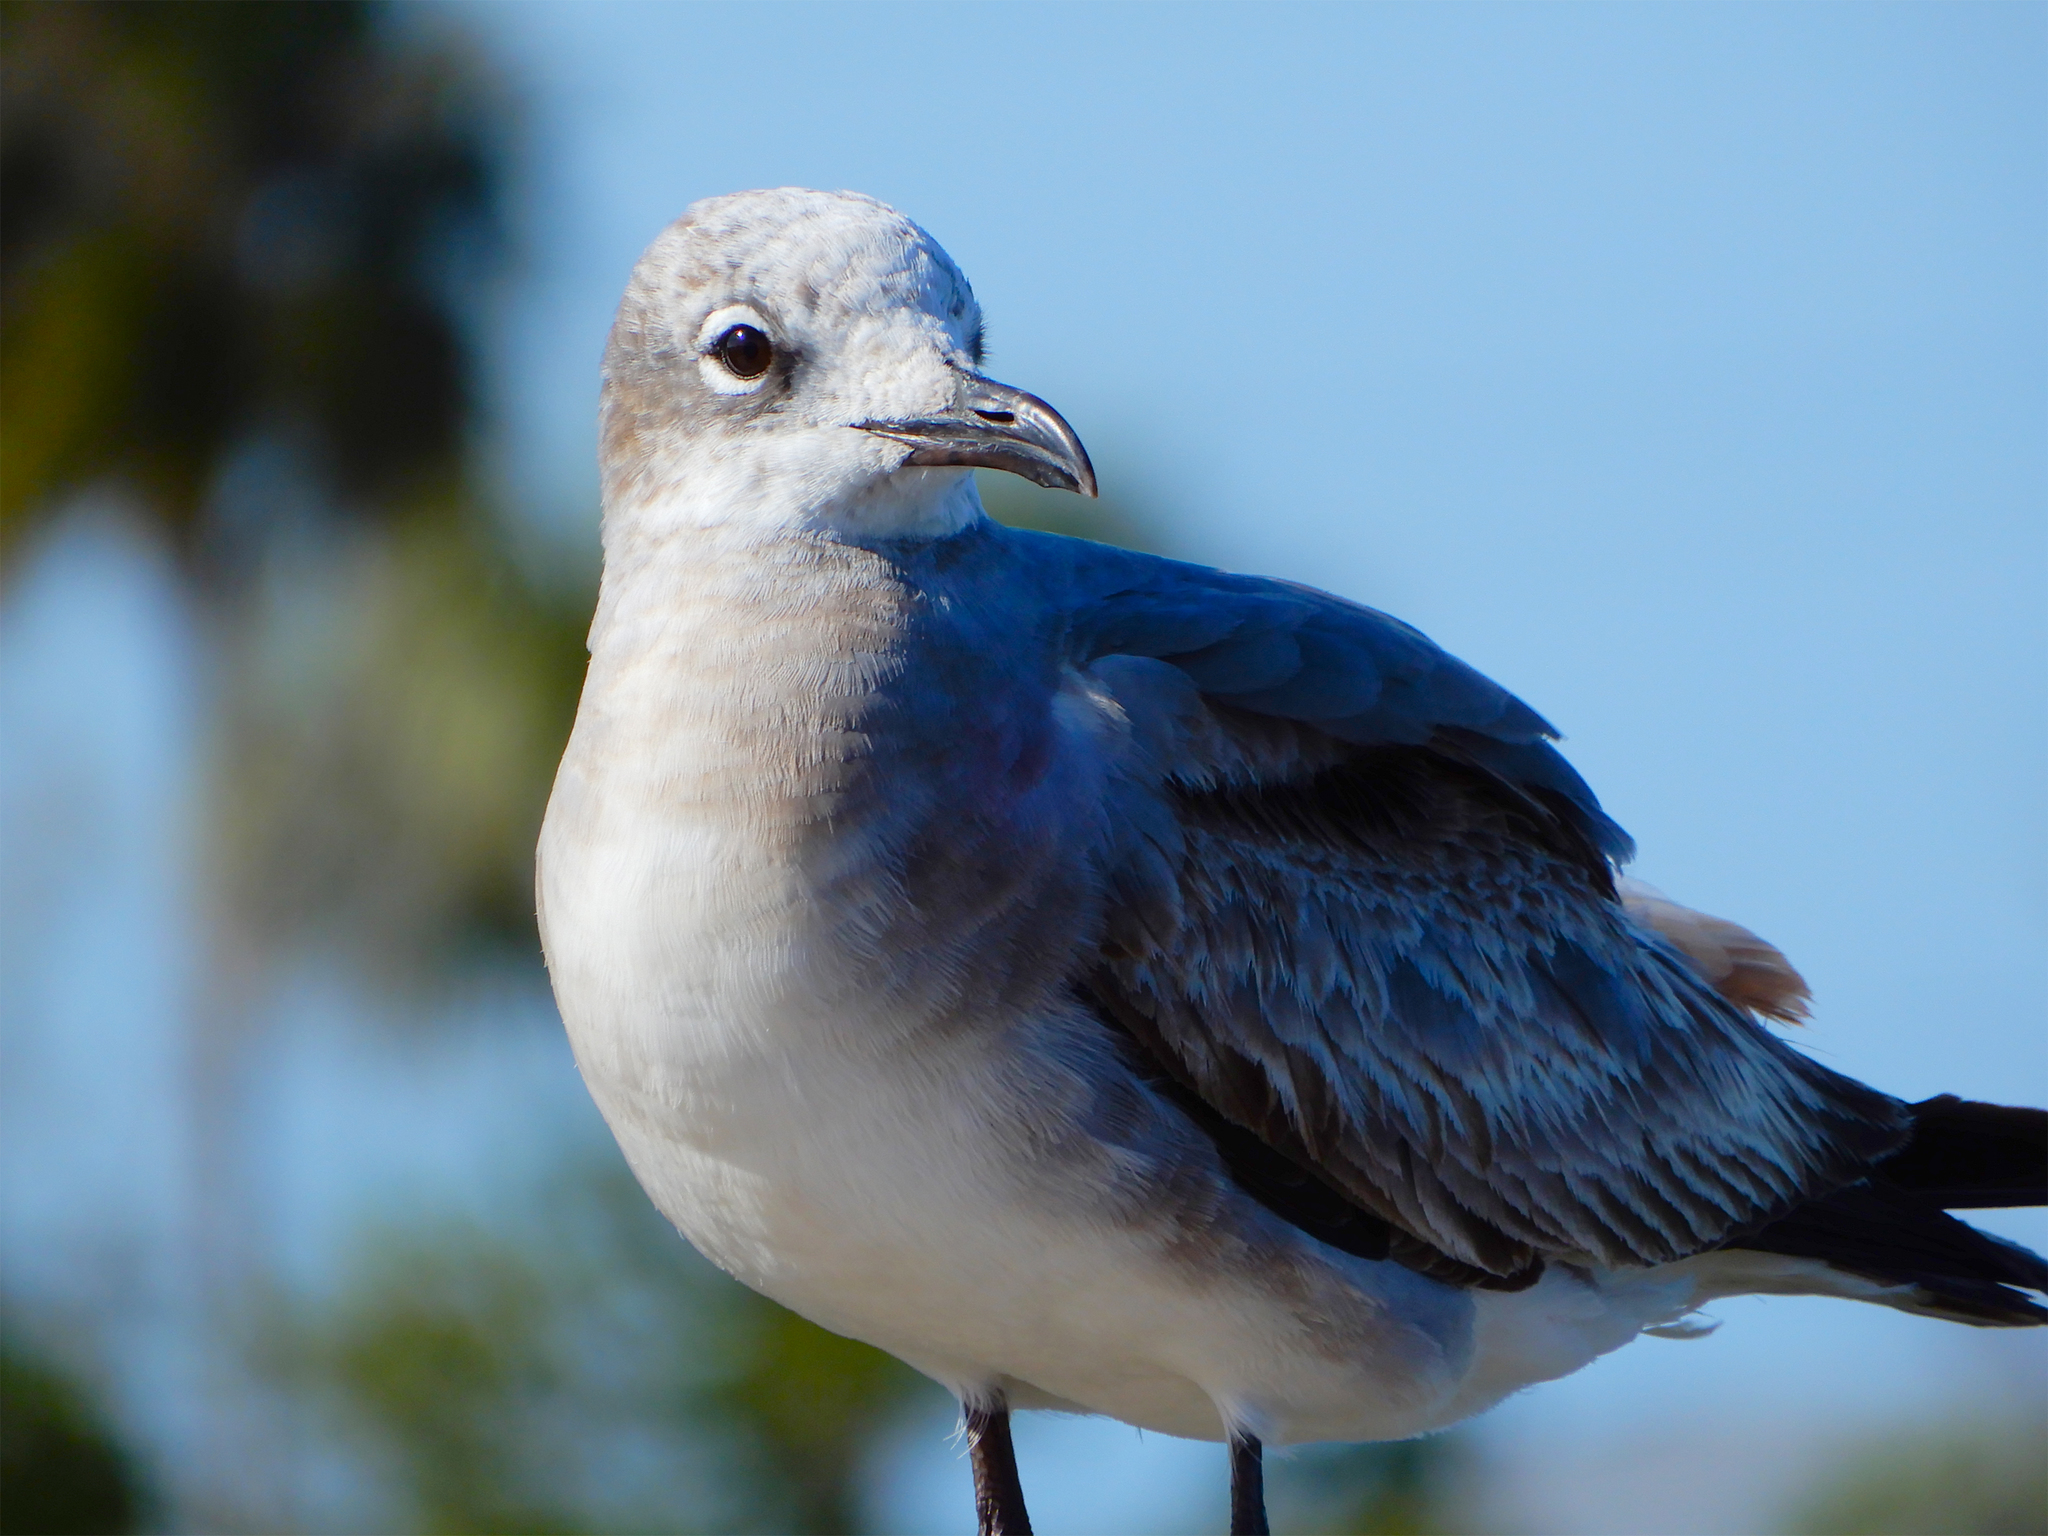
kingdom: Animalia
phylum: Chordata
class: Aves
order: Charadriiformes
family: Laridae
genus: Leucophaeus
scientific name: Leucophaeus atricilla
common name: Laughing gull
